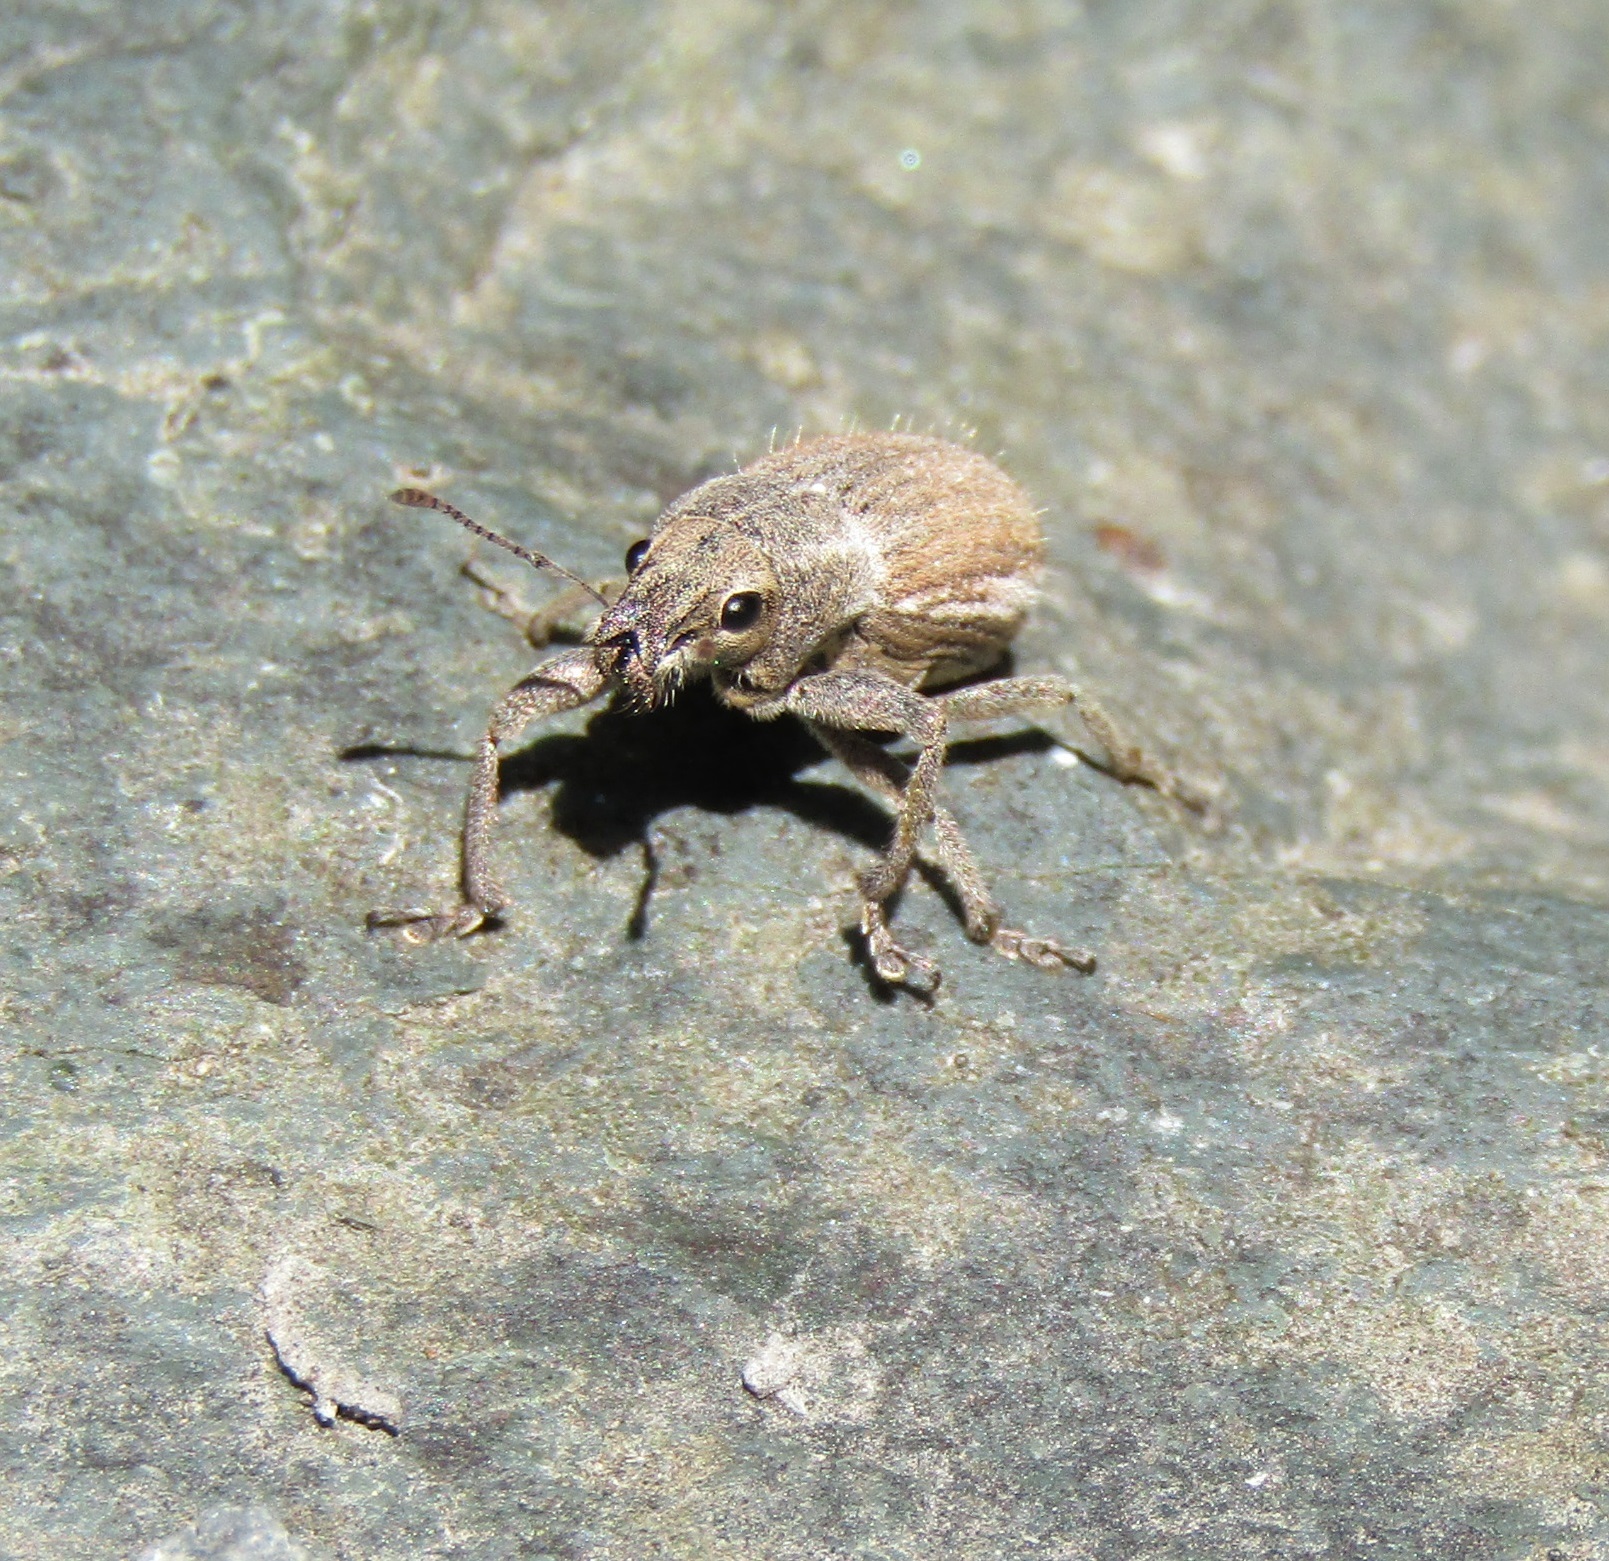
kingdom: Animalia
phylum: Arthropoda
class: Insecta
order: Coleoptera
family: Curculionidae
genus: Naupactus
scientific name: Naupactus leucoloma
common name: Whitefringed beetle
